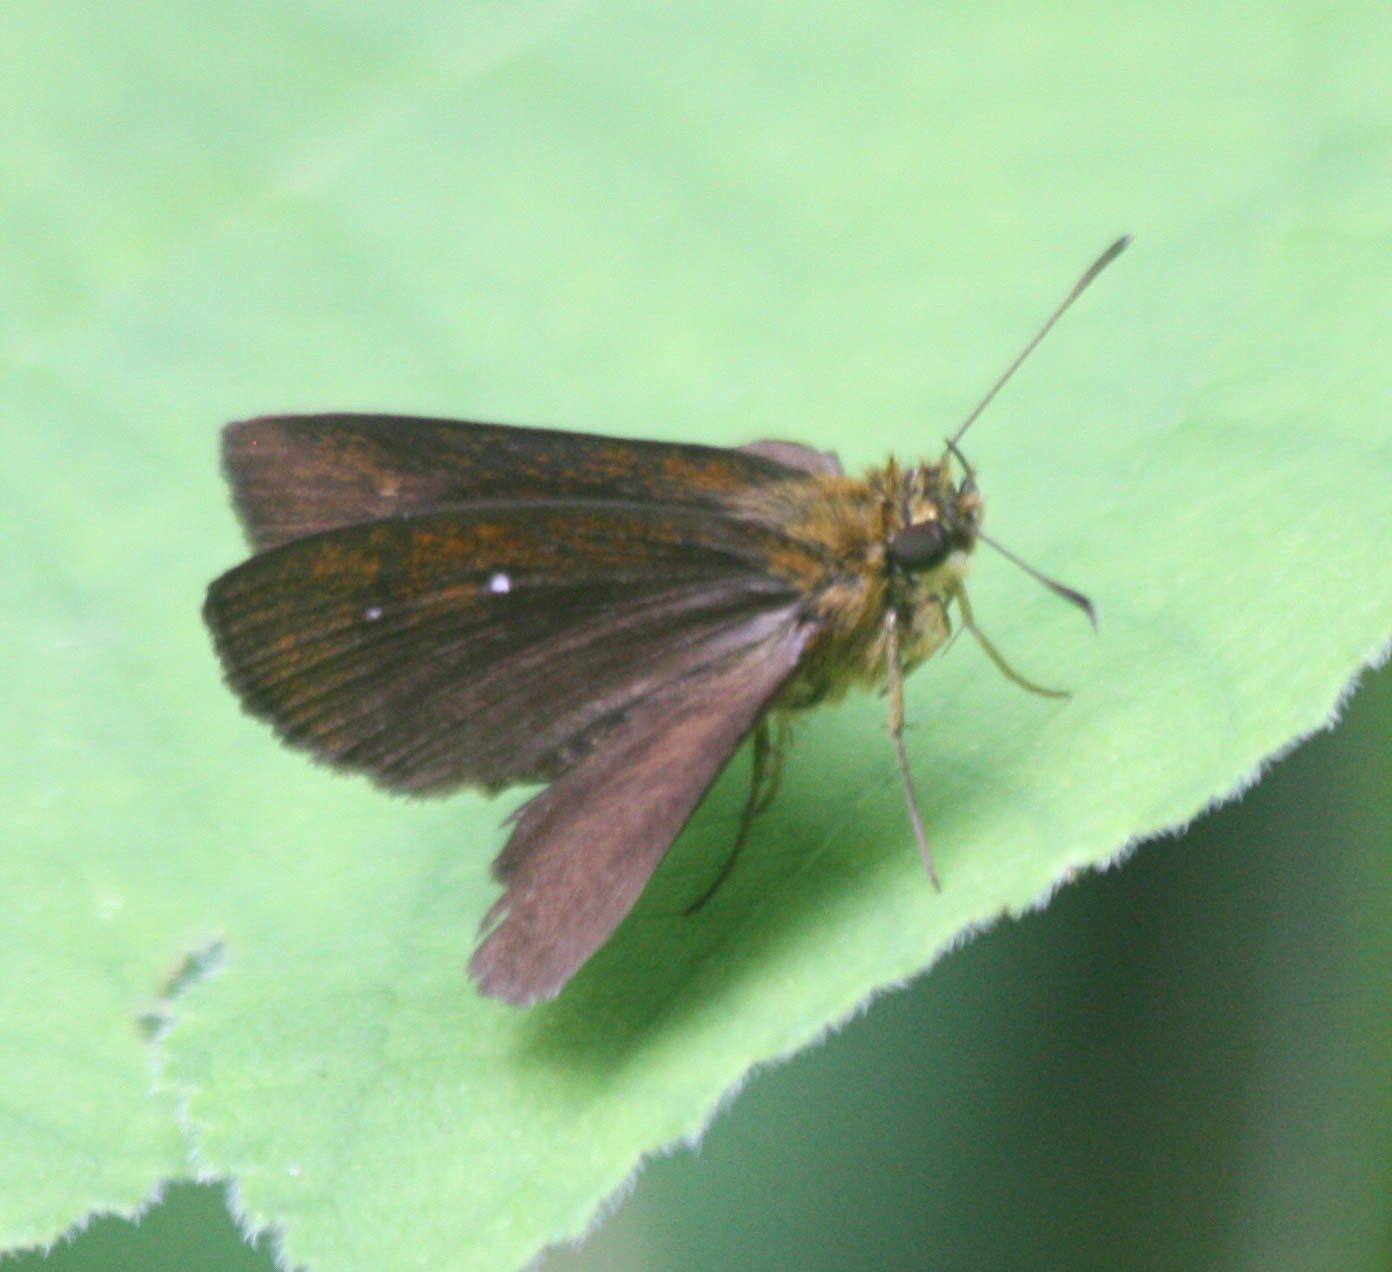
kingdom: Animalia
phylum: Arthropoda
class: Insecta
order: Lepidoptera
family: Hesperiidae
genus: Iambrix
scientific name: Iambrix salsala
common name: Chestnut bob
